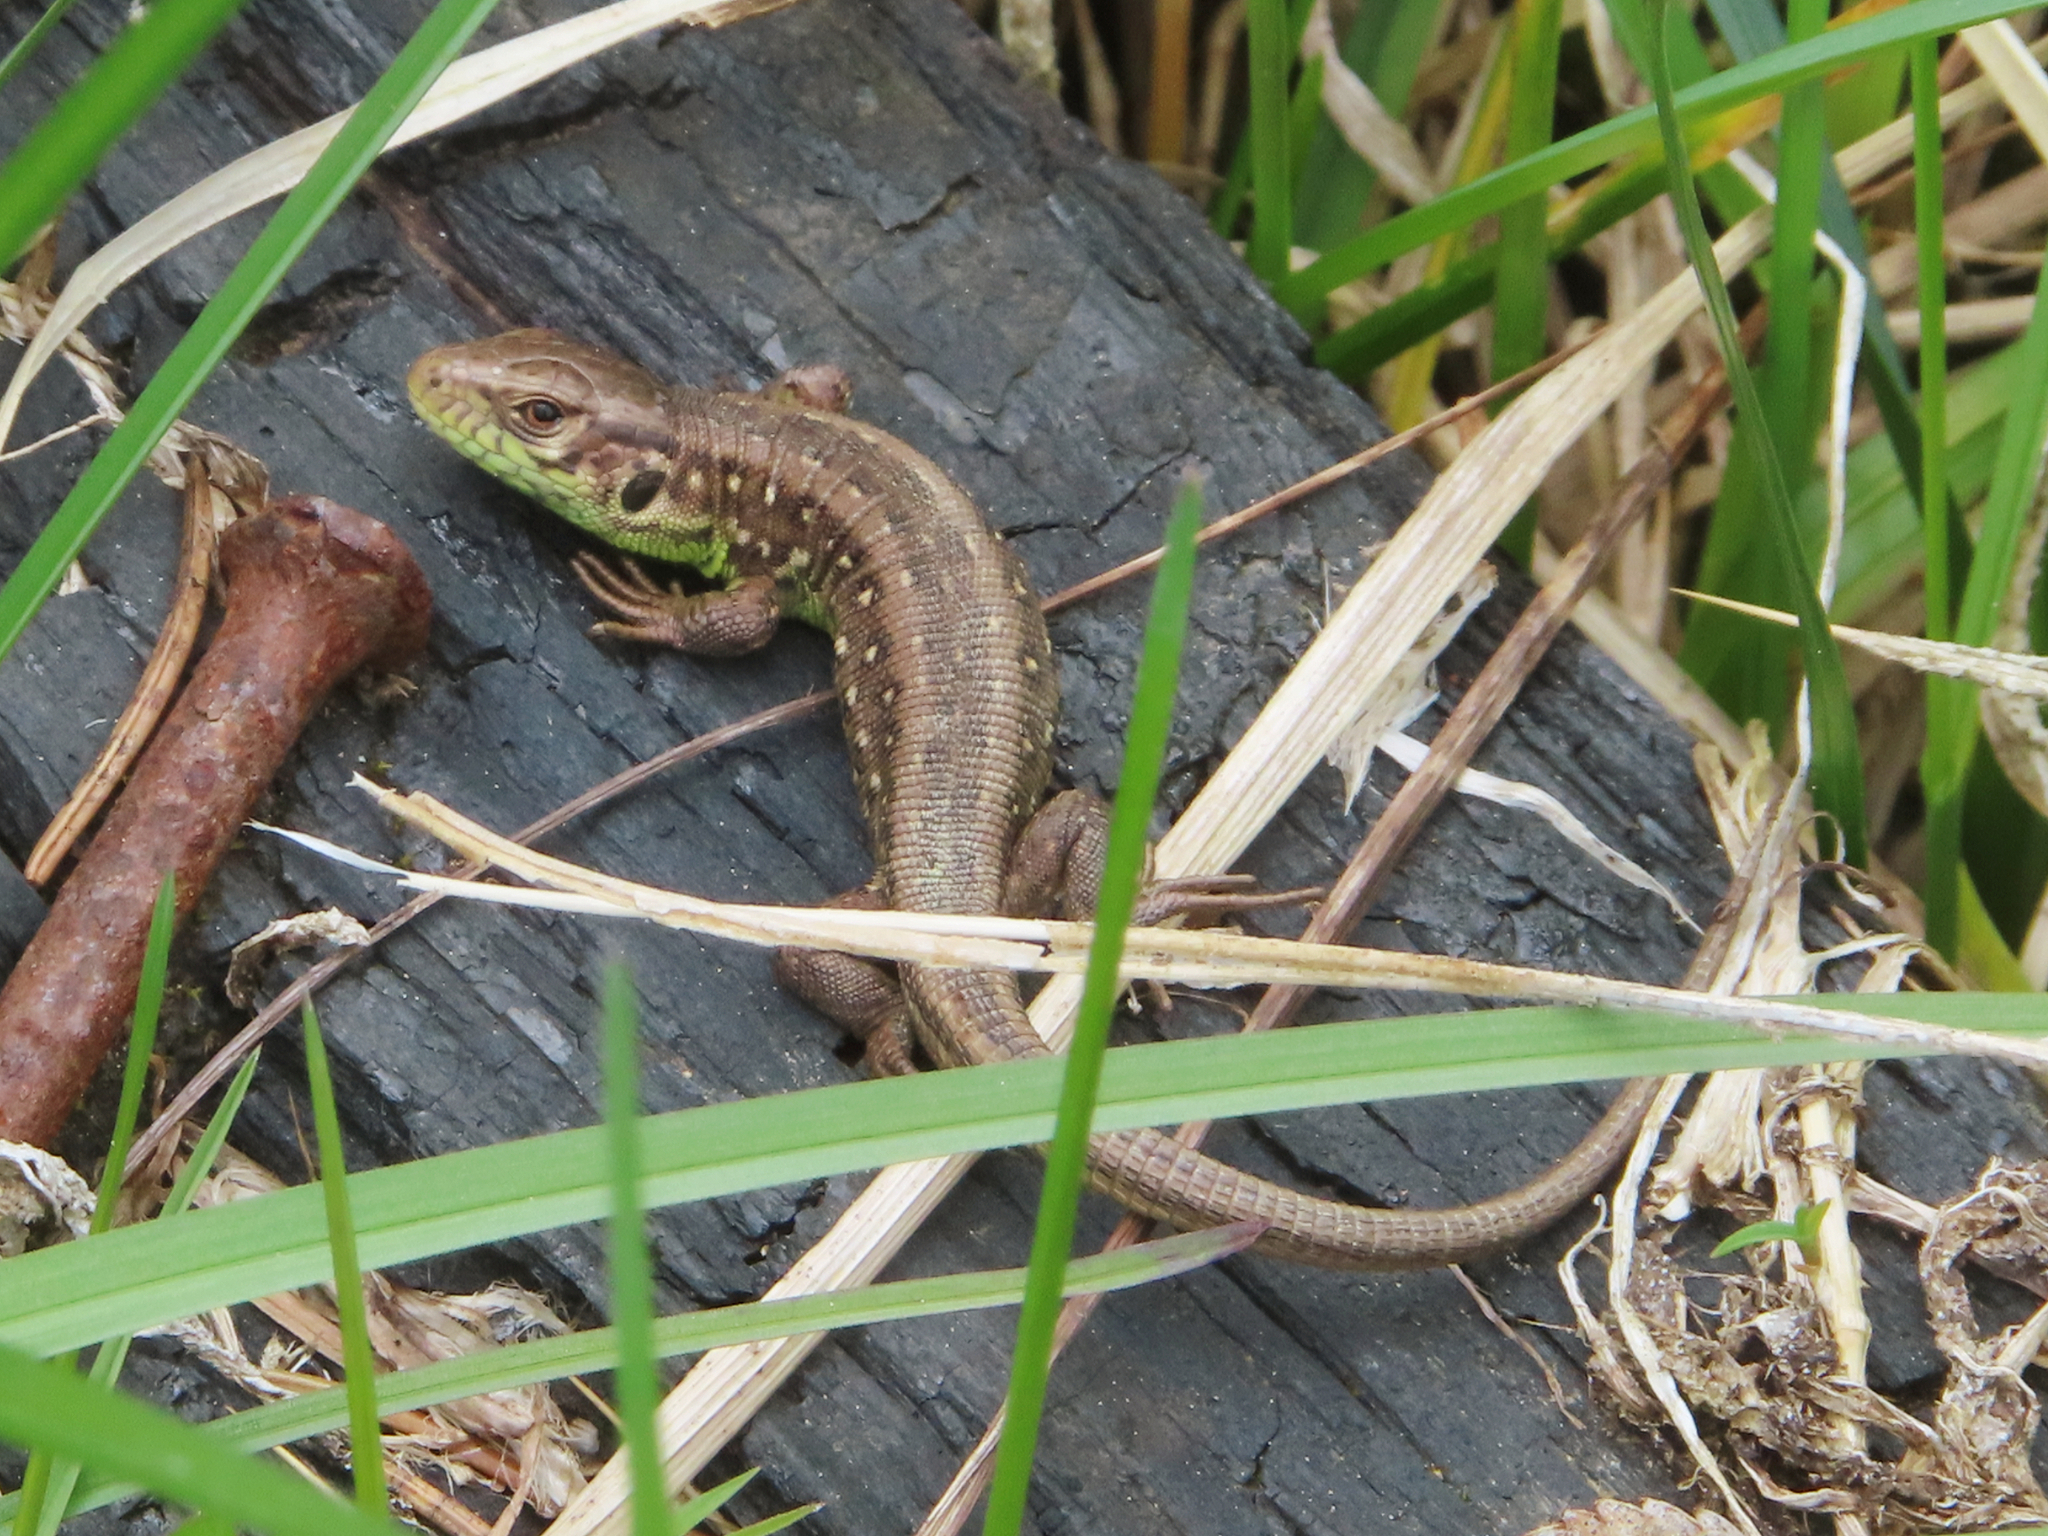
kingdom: Animalia
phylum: Chordata
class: Squamata
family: Lacertidae
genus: Lacerta
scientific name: Lacerta agilis
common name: Sand lizard
